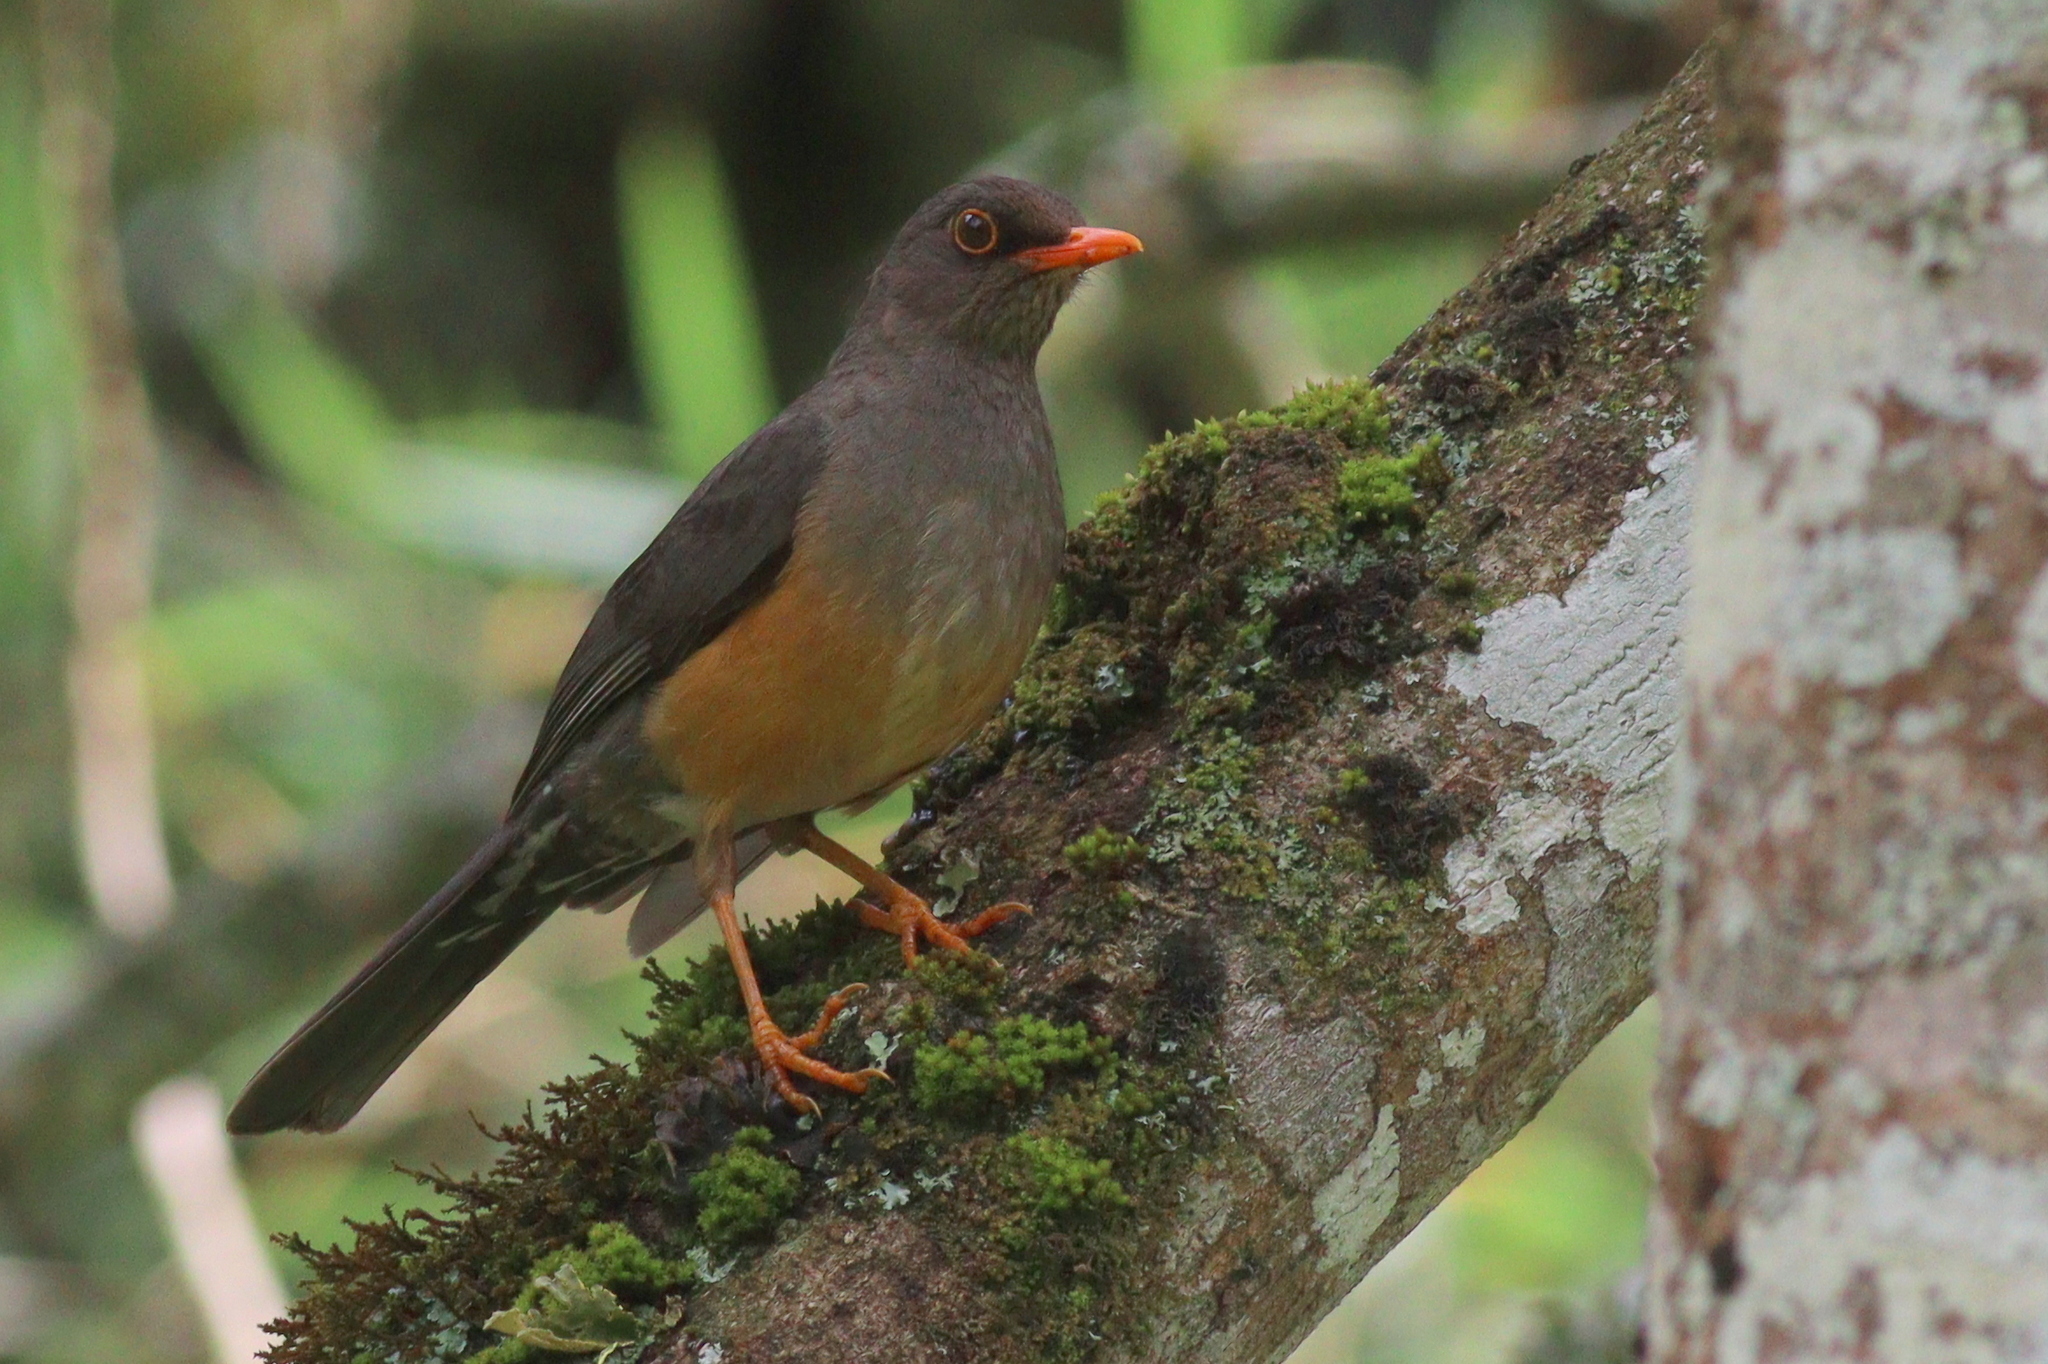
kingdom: Animalia
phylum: Chordata
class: Aves
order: Passeriformes
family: Turdidae
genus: Turdus
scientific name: Turdus abyssinicus
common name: Abyssinian thrush
